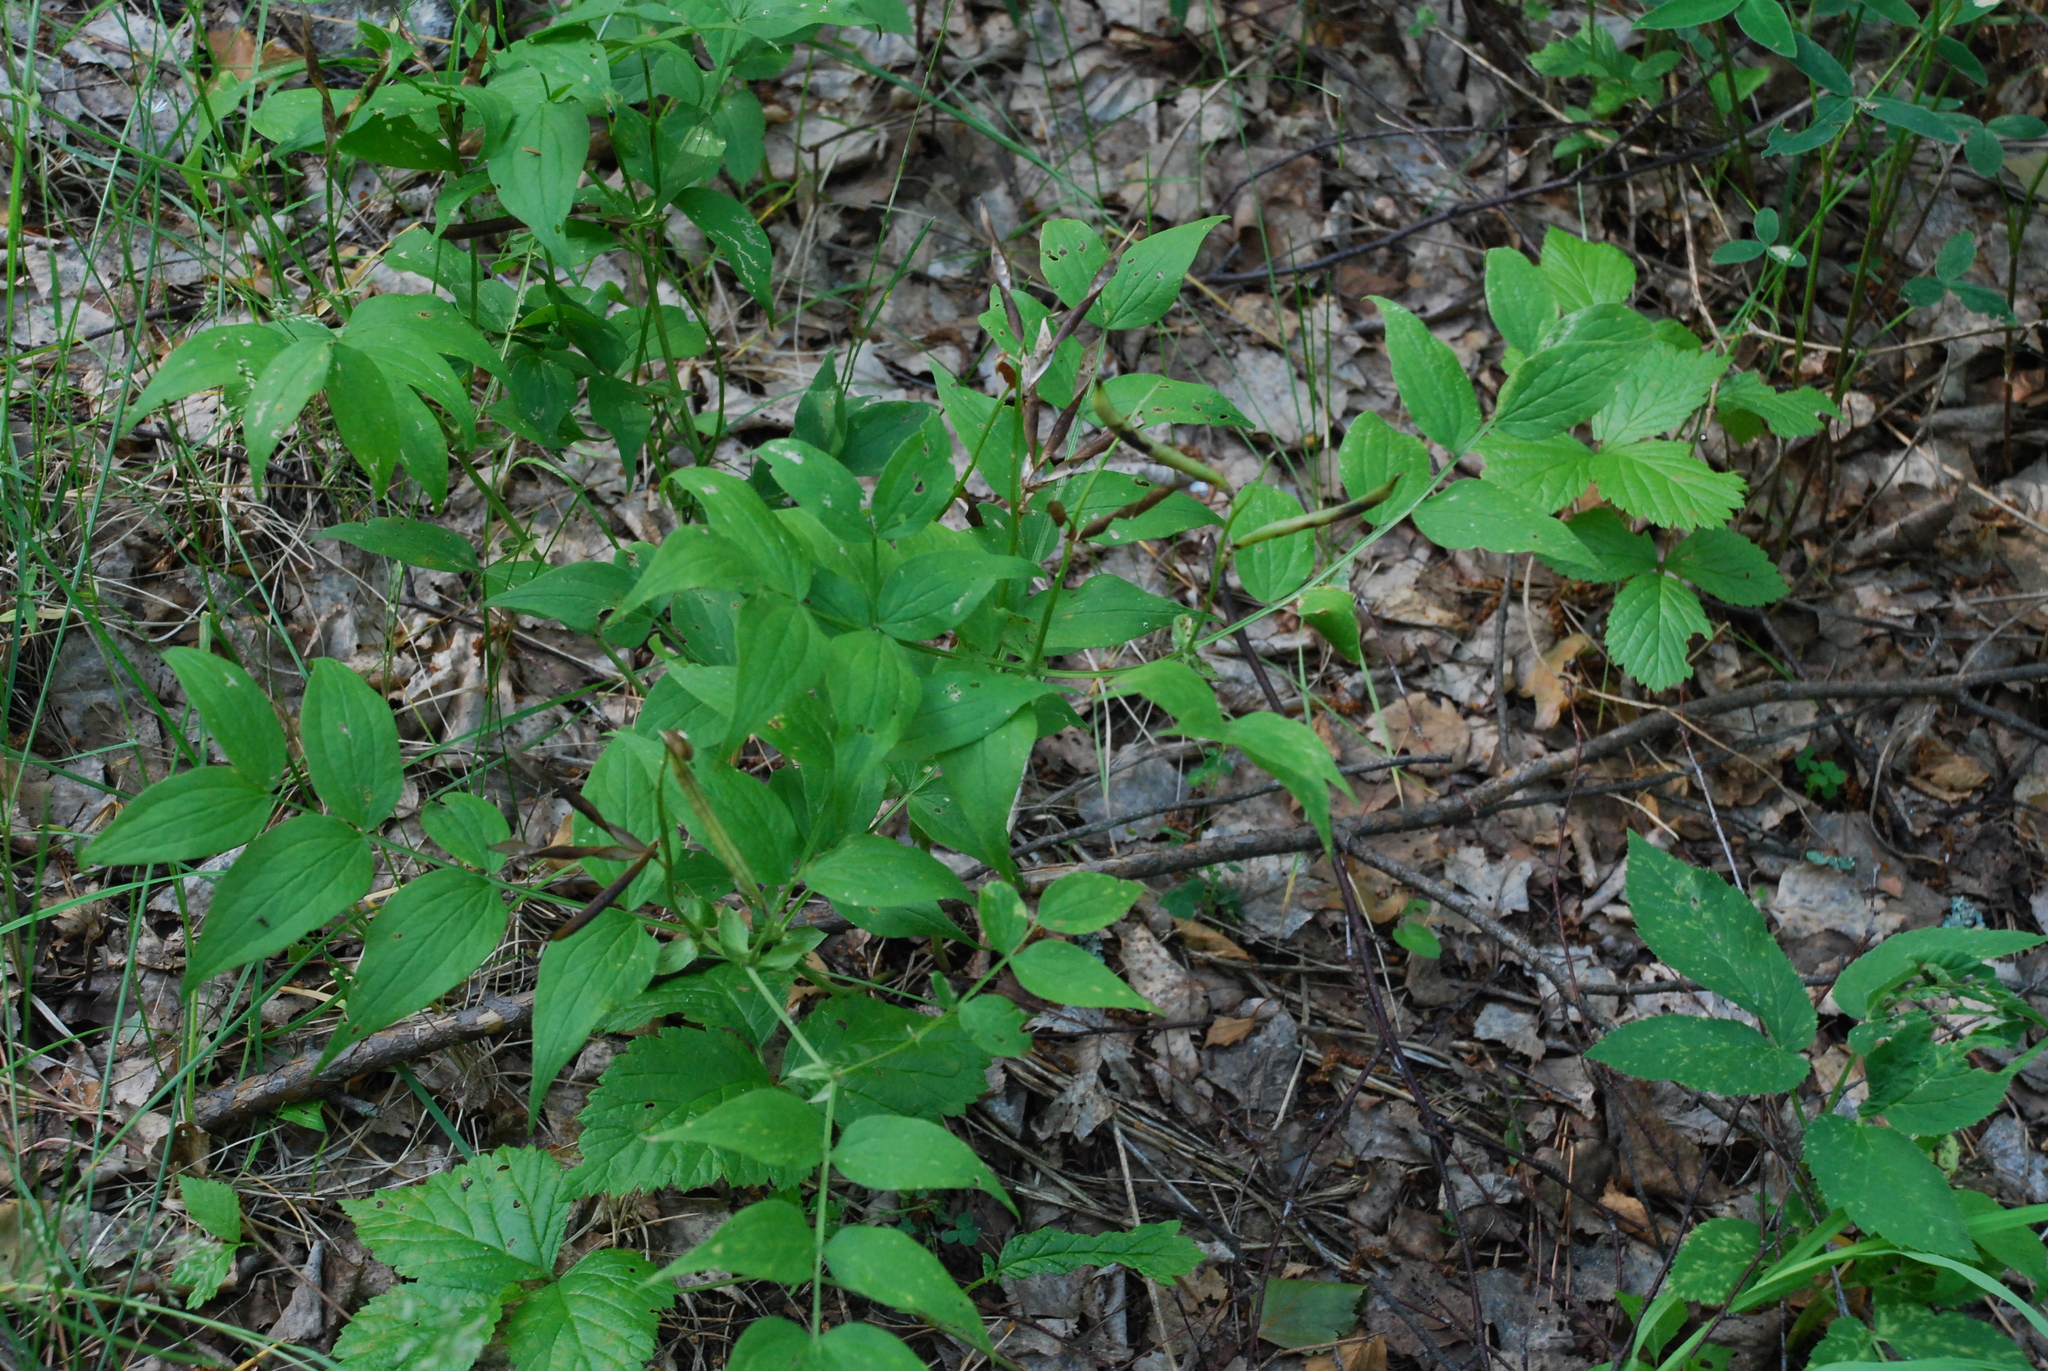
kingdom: Plantae
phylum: Tracheophyta
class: Magnoliopsida
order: Fabales
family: Fabaceae
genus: Lathyrus
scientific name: Lathyrus vernus
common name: Spring pea
